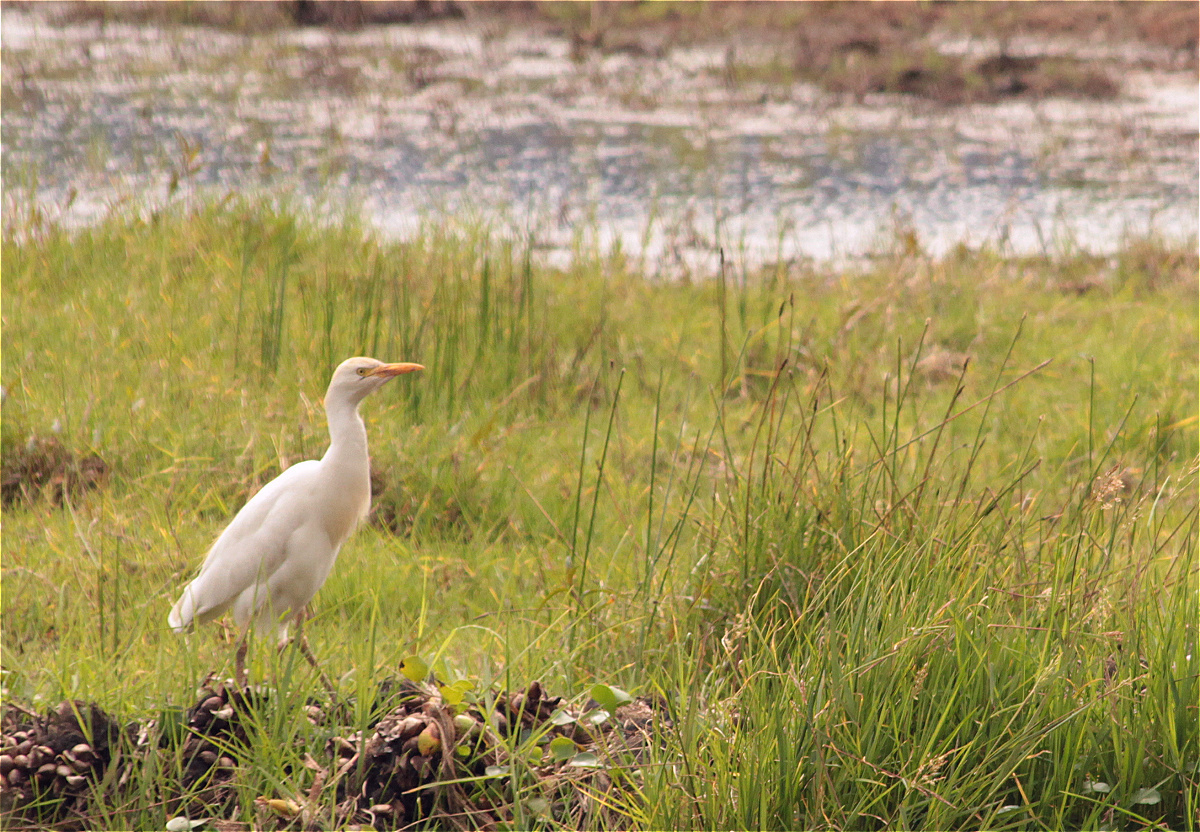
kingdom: Animalia
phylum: Chordata
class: Aves
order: Pelecaniformes
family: Ardeidae
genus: Bubulcus
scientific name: Bubulcus ibis
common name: Cattle egret
